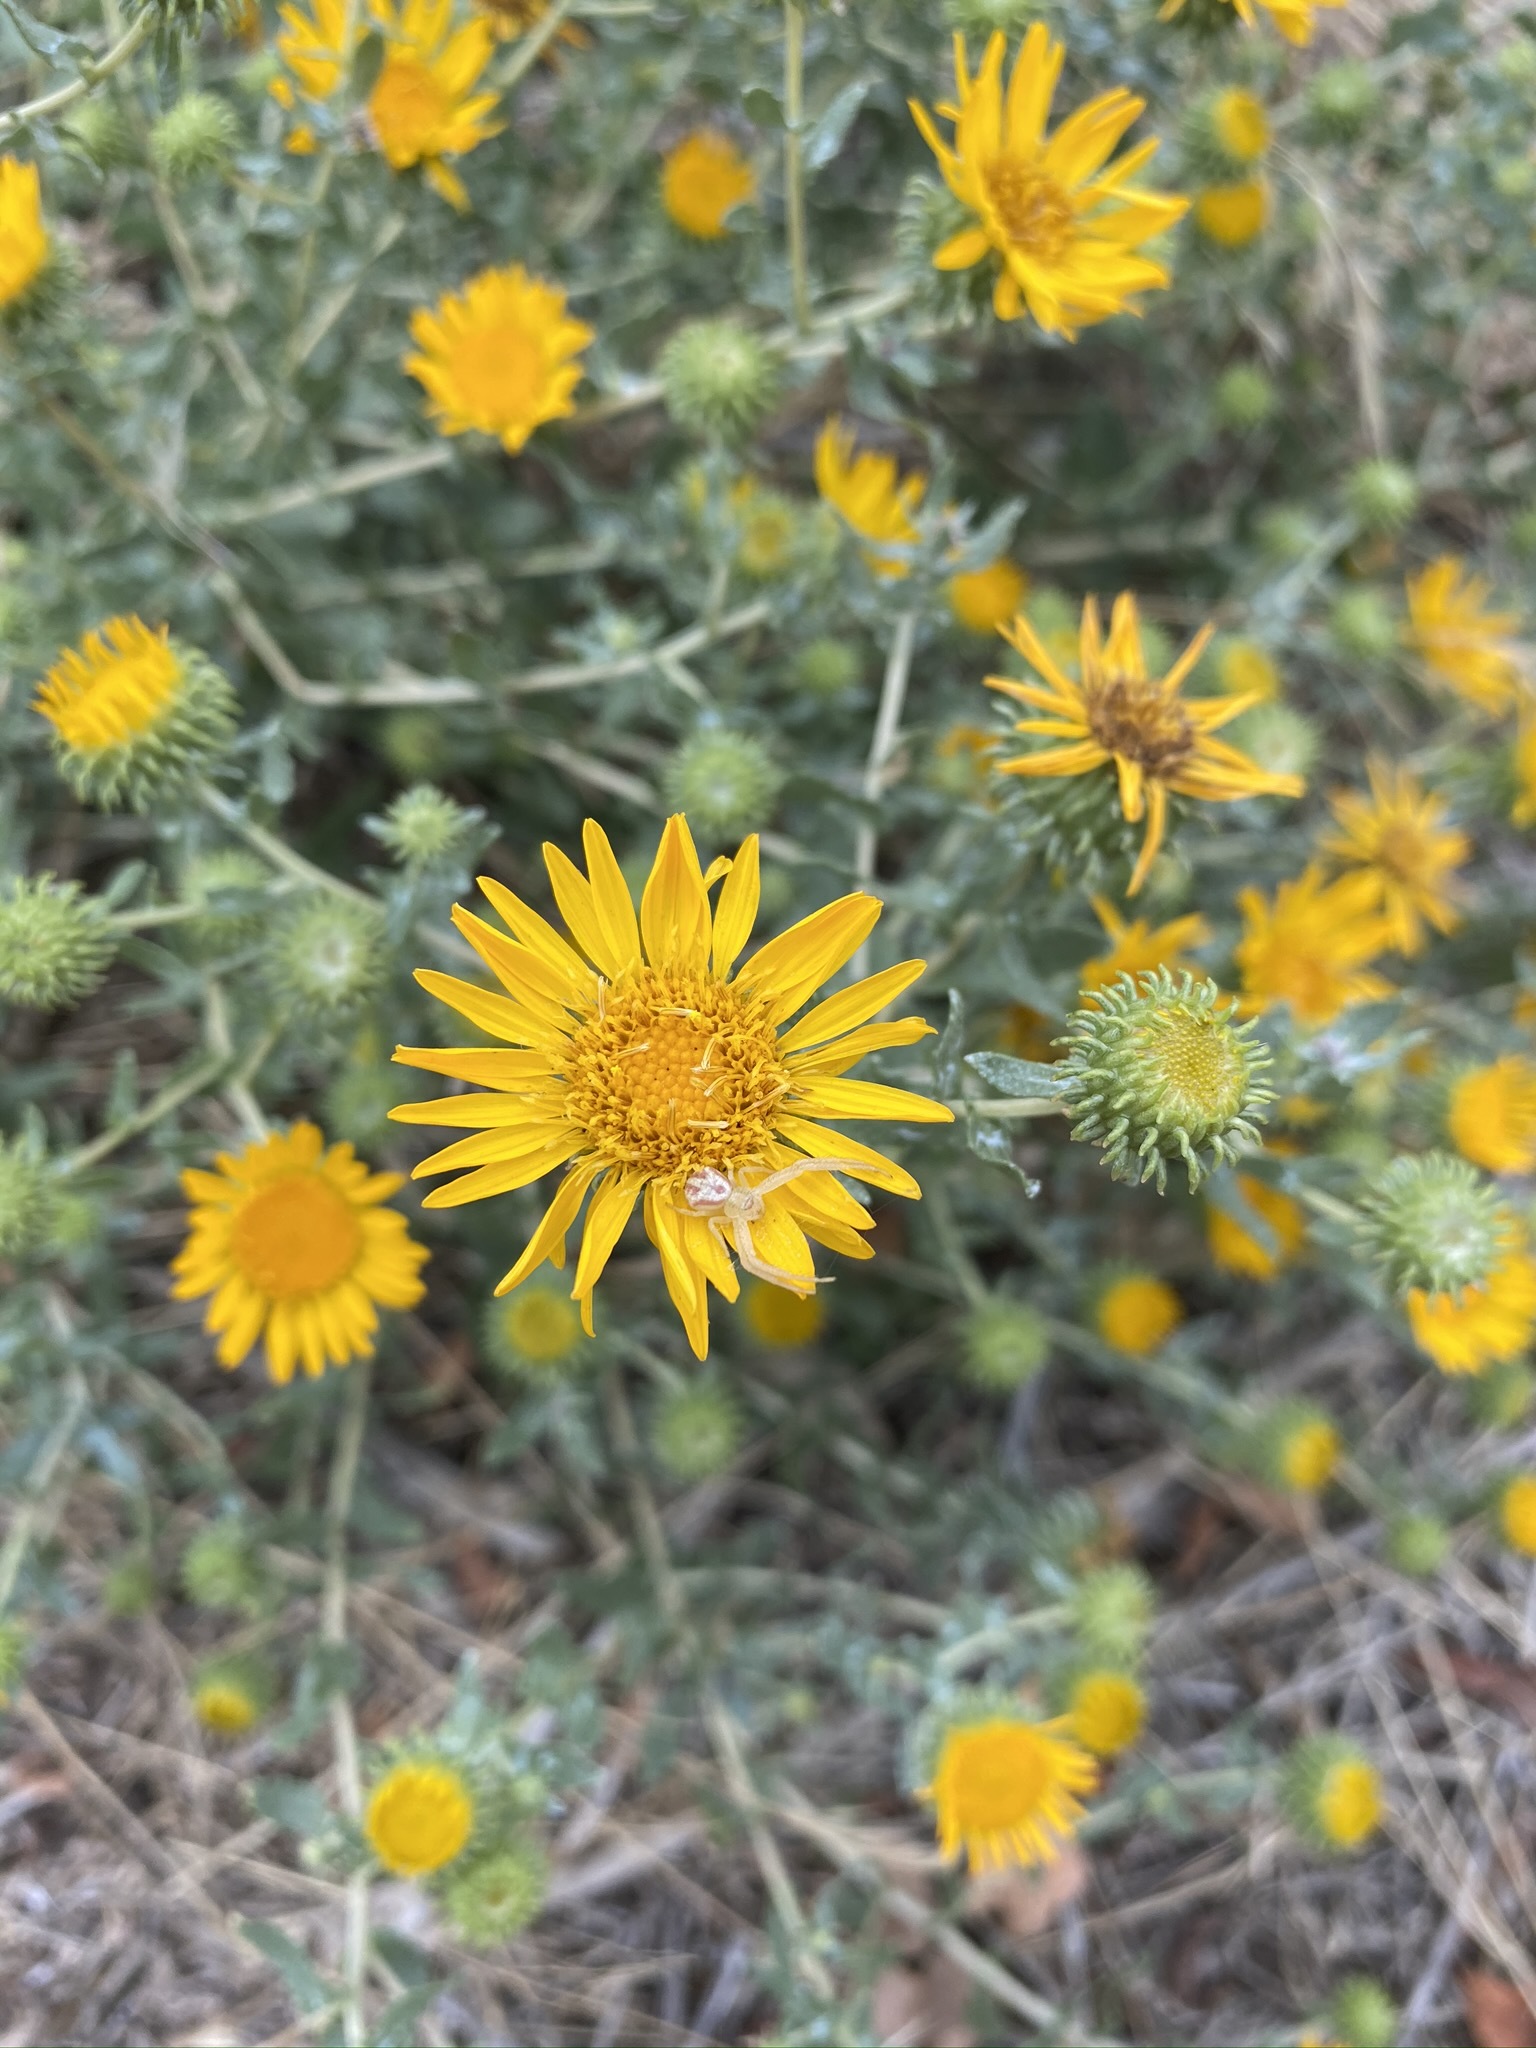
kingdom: Plantae
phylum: Tracheophyta
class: Magnoliopsida
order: Asterales
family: Asteraceae
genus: Grindelia
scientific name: Grindelia squarrosa
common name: Curly-cup gumweed
